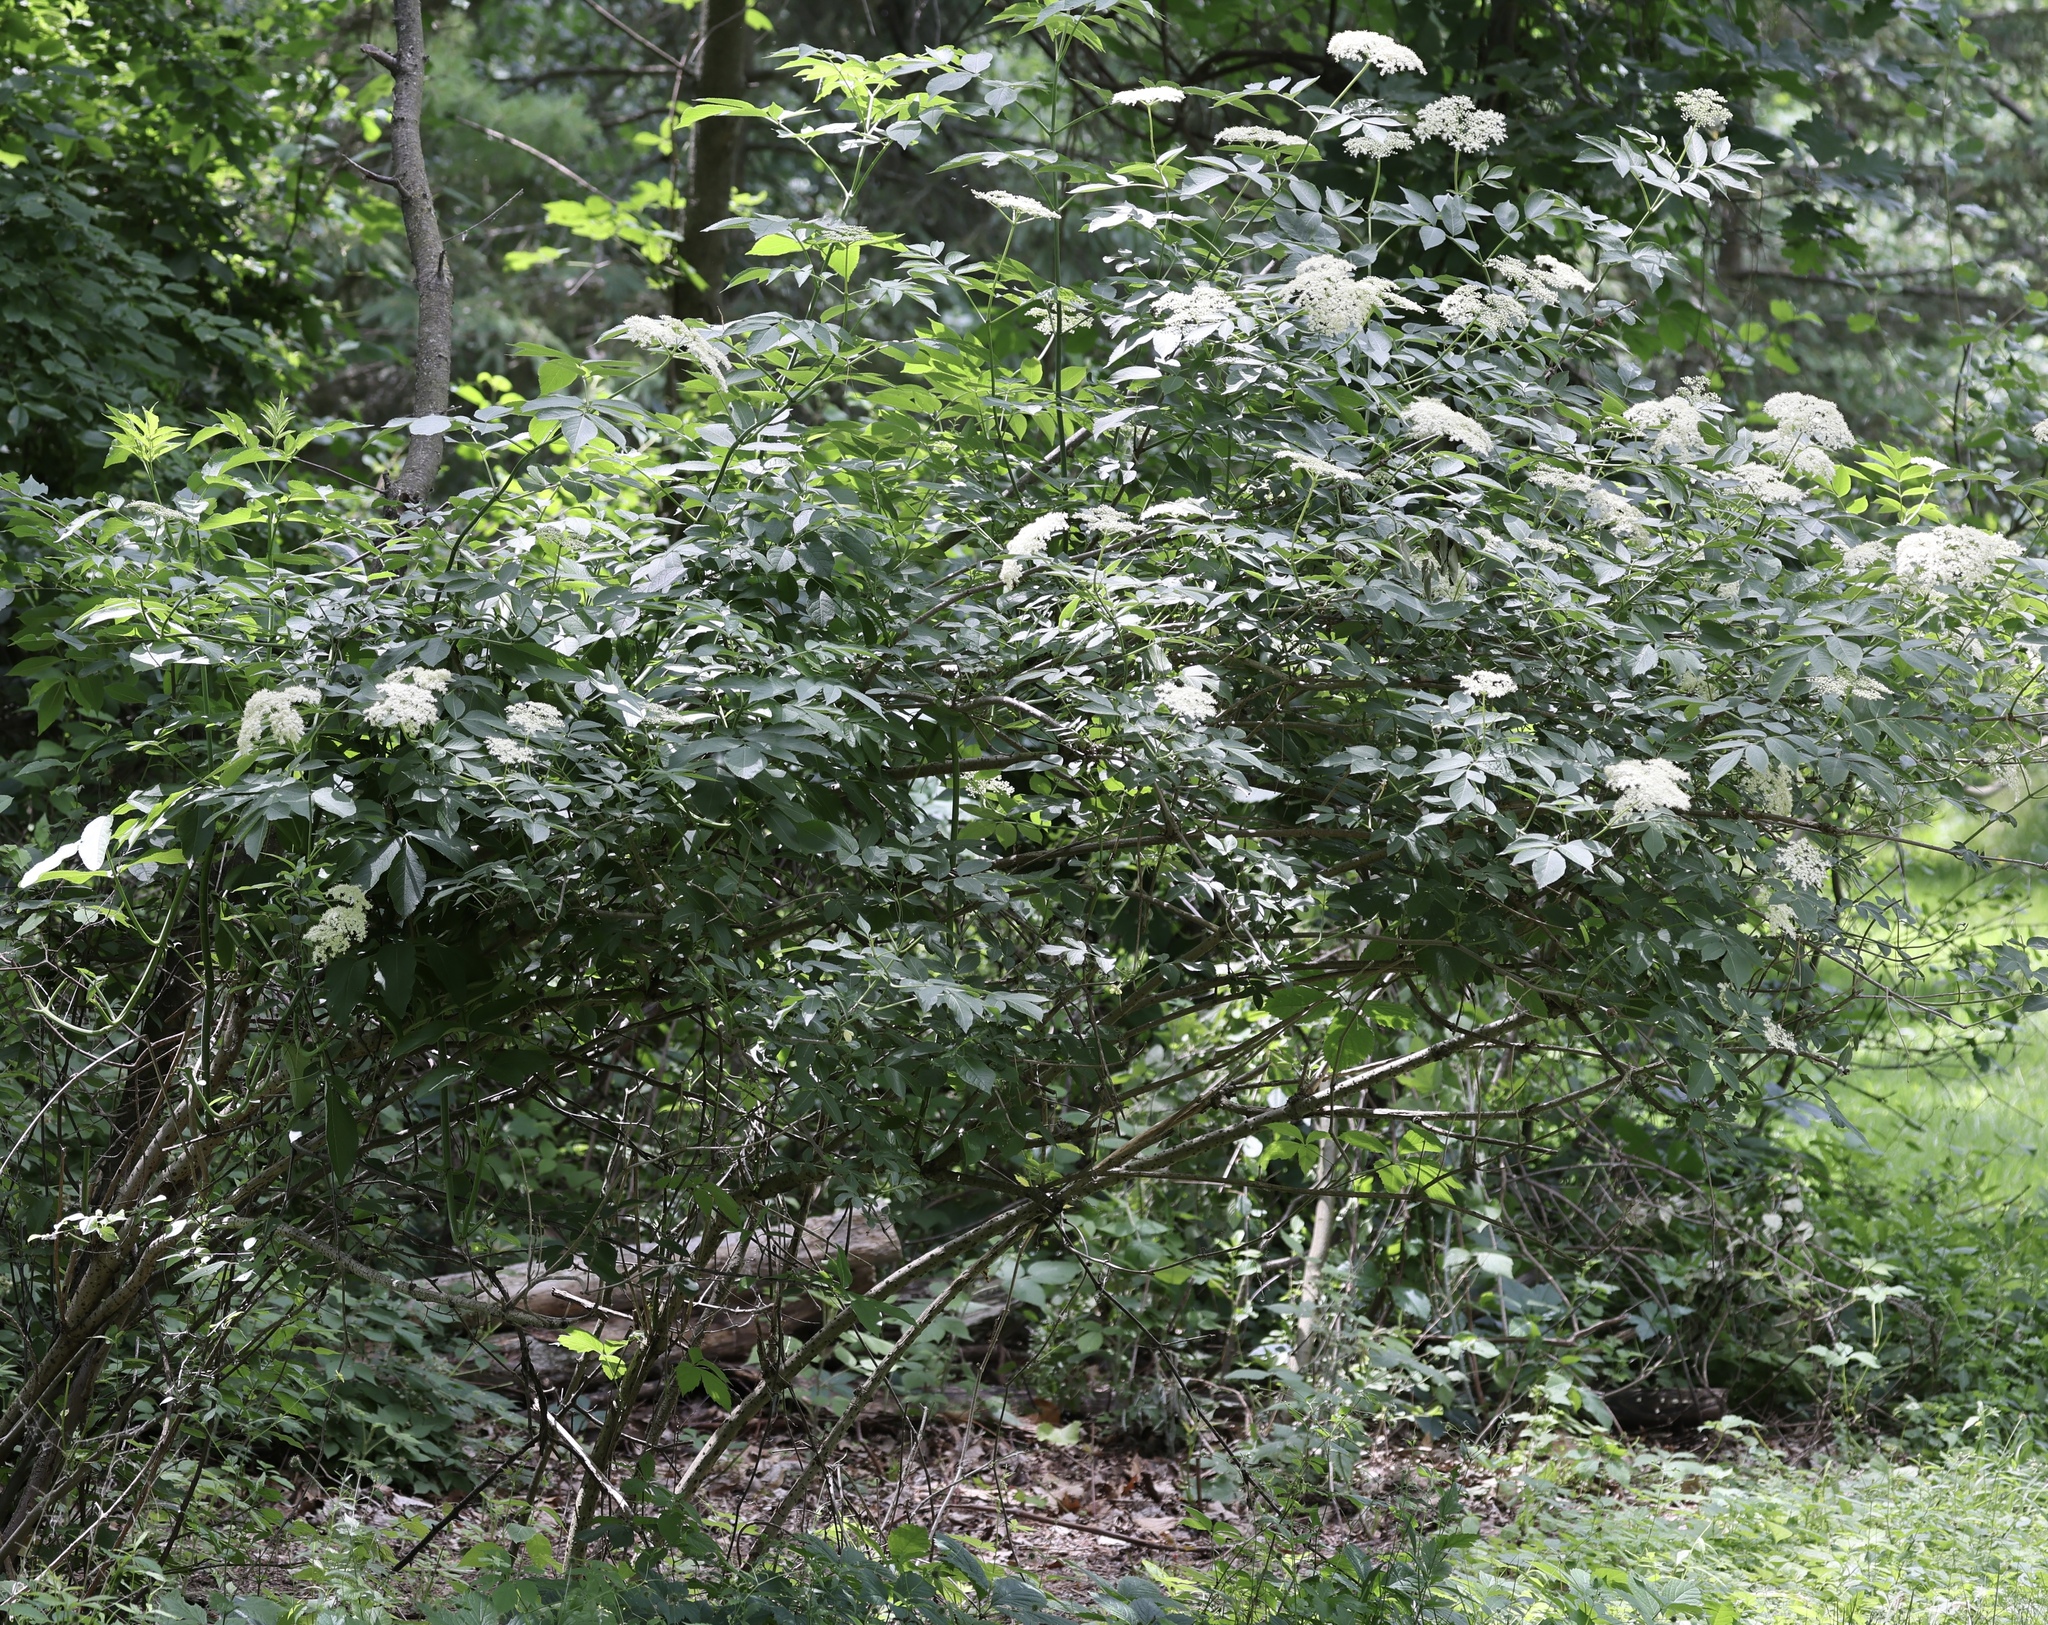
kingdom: Plantae
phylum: Tracheophyta
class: Magnoliopsida
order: Dipsacales
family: Viburnaceae
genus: Sambucus
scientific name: Sambucus canadensis
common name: American elder
